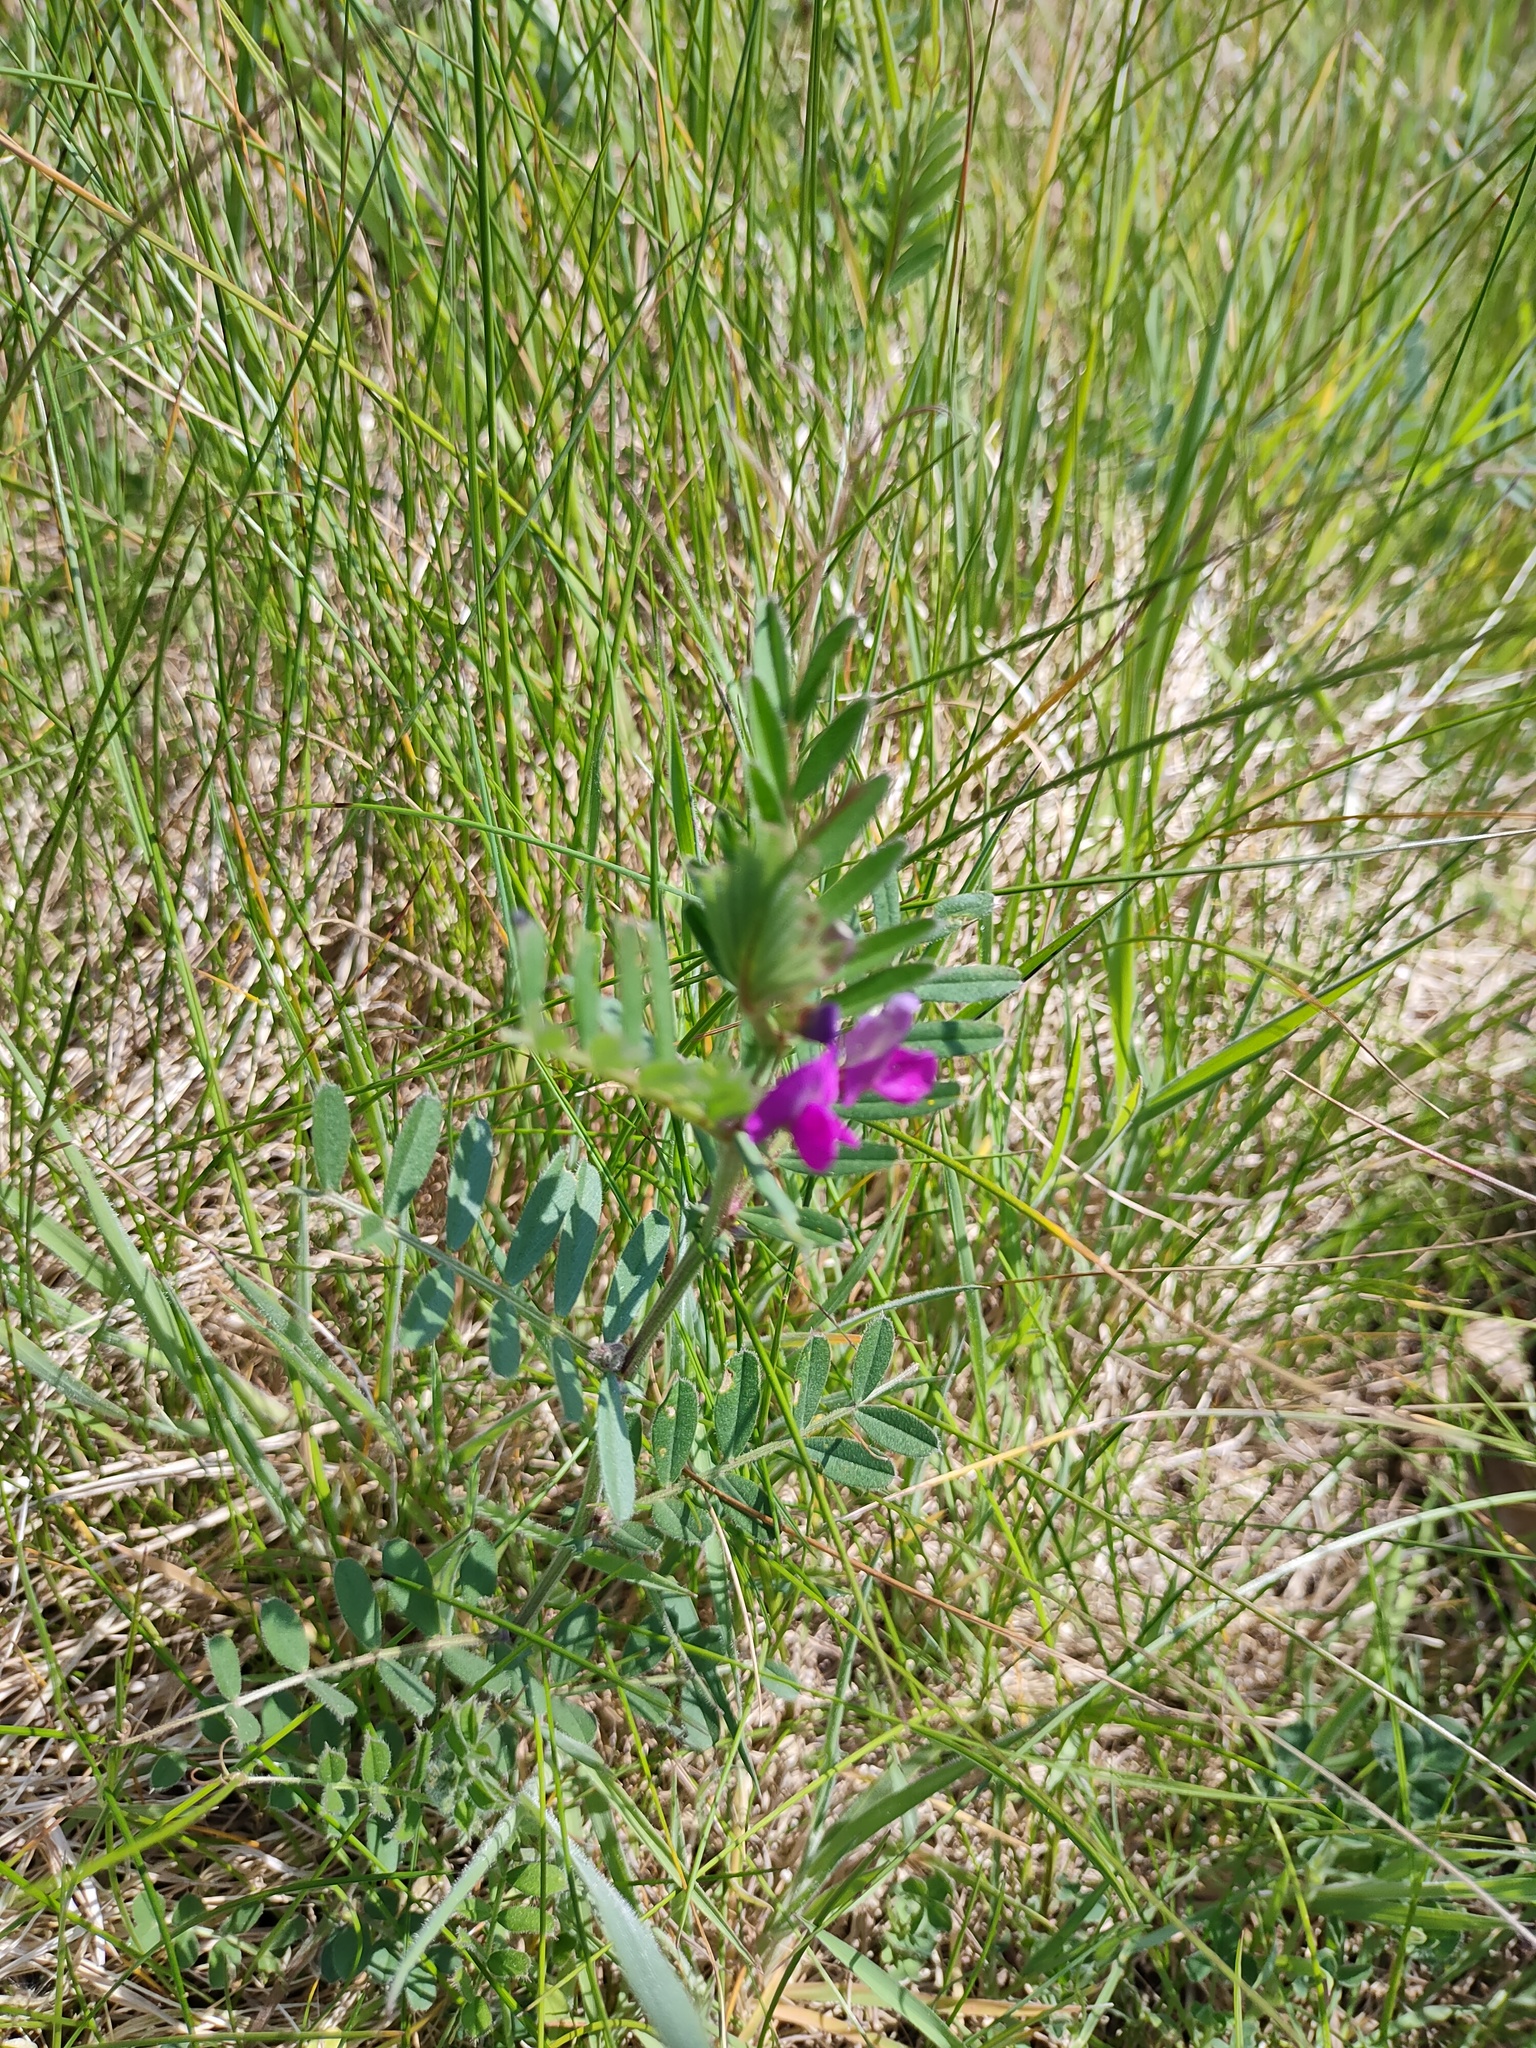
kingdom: Plantae
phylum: Tracheophyta
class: Magnoliopsida
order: Fabales
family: Fabaceae
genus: Vicia
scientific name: Vicia sativa
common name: Garden vetch
